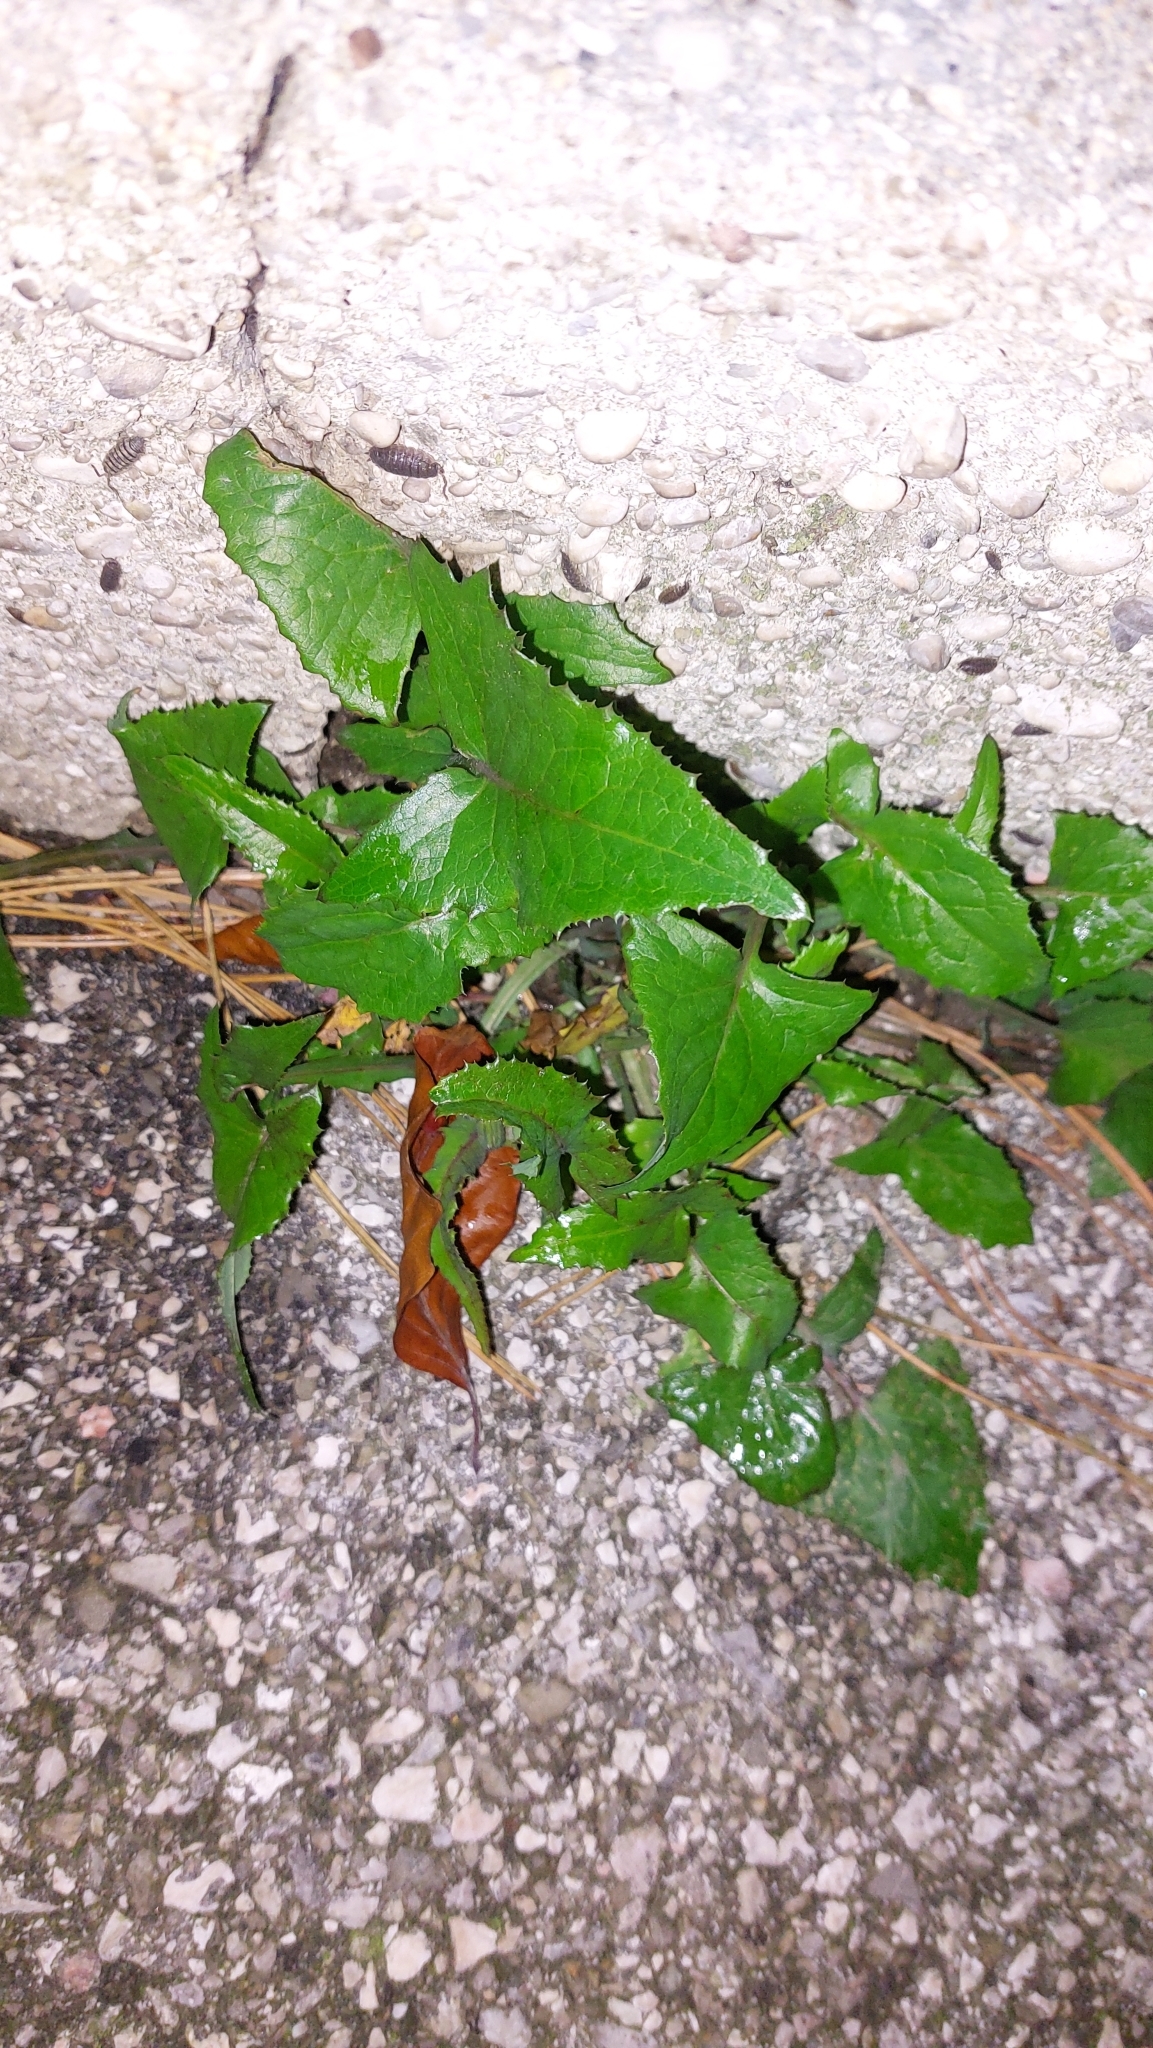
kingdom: Plantae
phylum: Tracheophyta
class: Magnoliopsida
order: Asterales
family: Asteraceae
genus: Sonchus
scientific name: Sonchus oleraceus
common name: Common sowthistle
